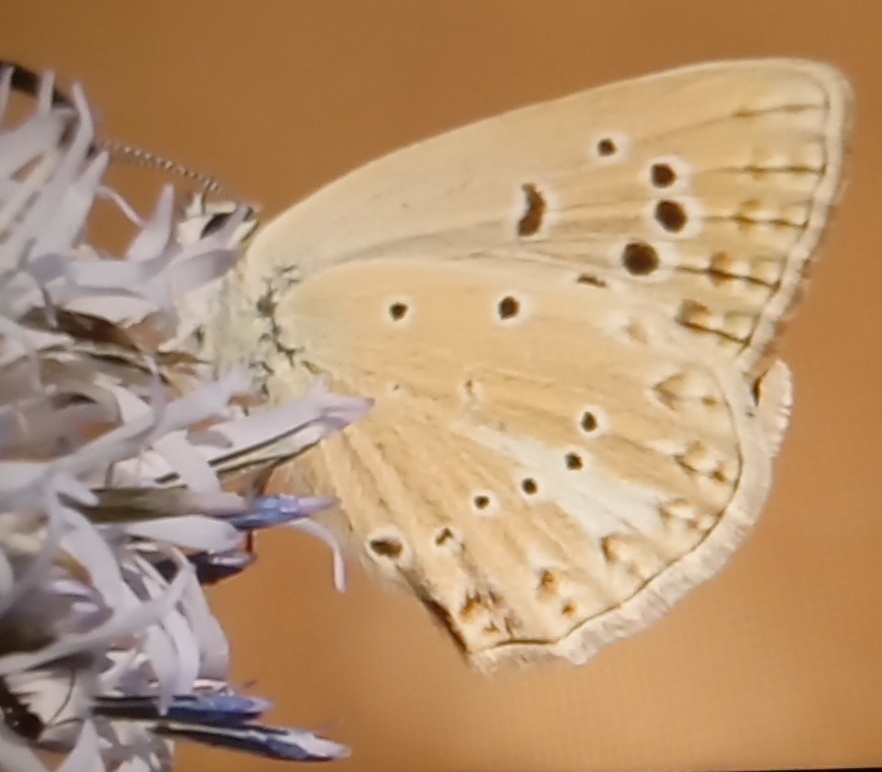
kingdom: Animalia
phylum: Arthropoda
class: Insecta
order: Lepidoptera
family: Lycaenidae
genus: Agrodiaetus
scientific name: Agrodiaetus admetus
